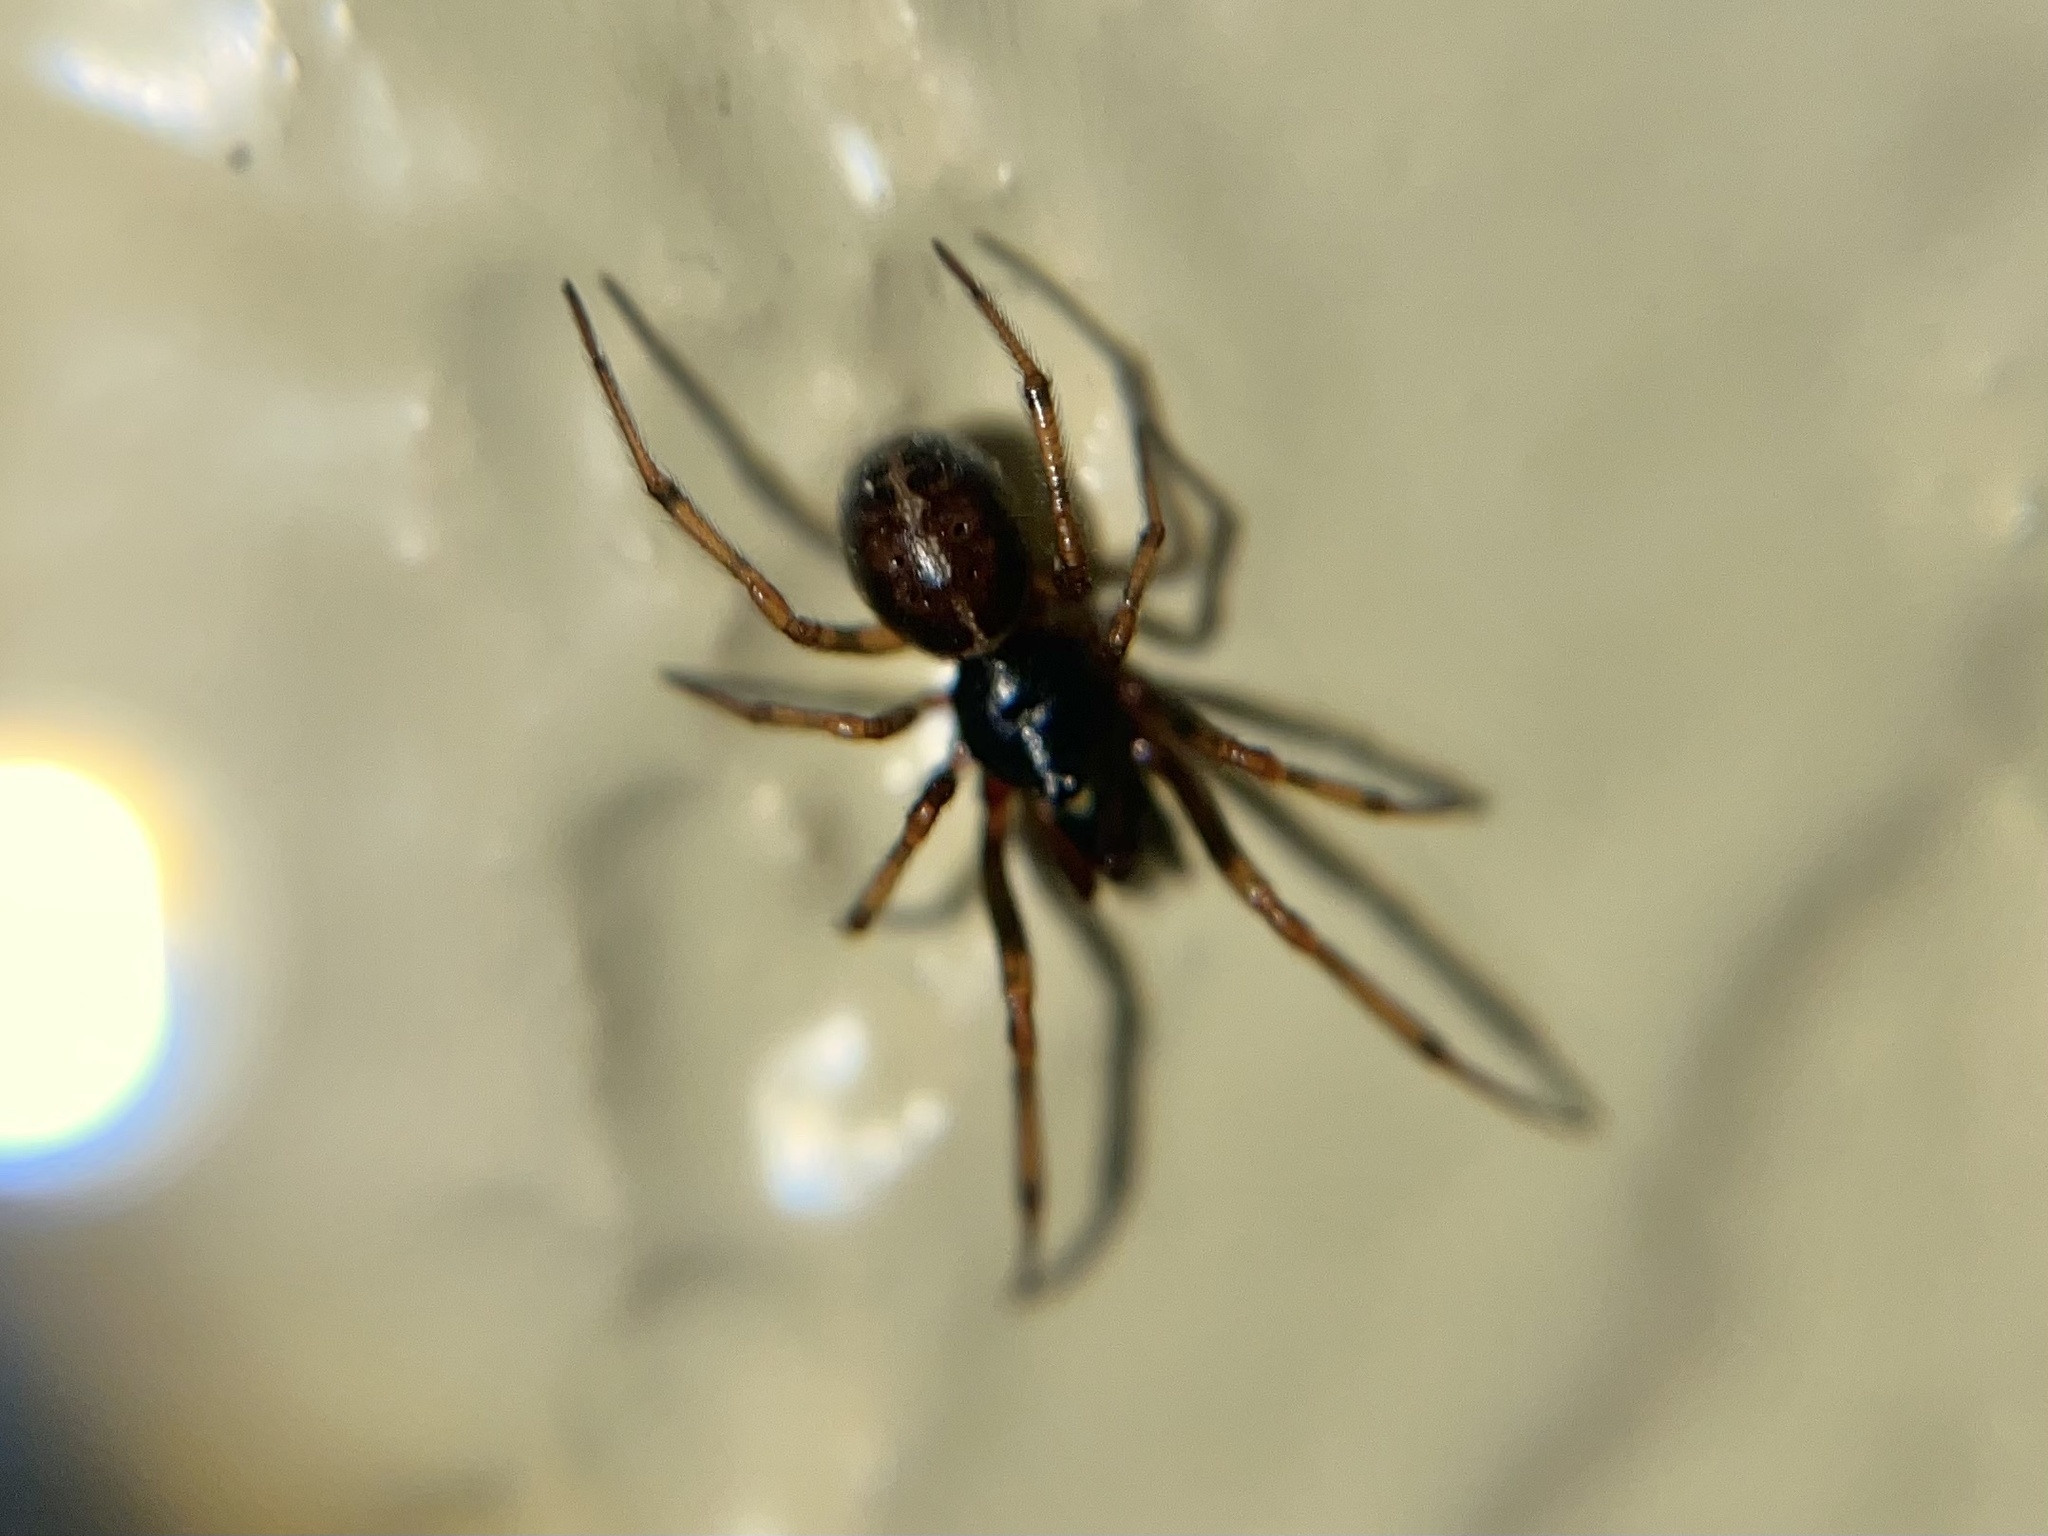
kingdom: Animalia
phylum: Arthropoda
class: Arachnida
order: Araneae
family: Theridiidae
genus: Steatoda
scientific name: Steatoda bipunctata
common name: False widow
